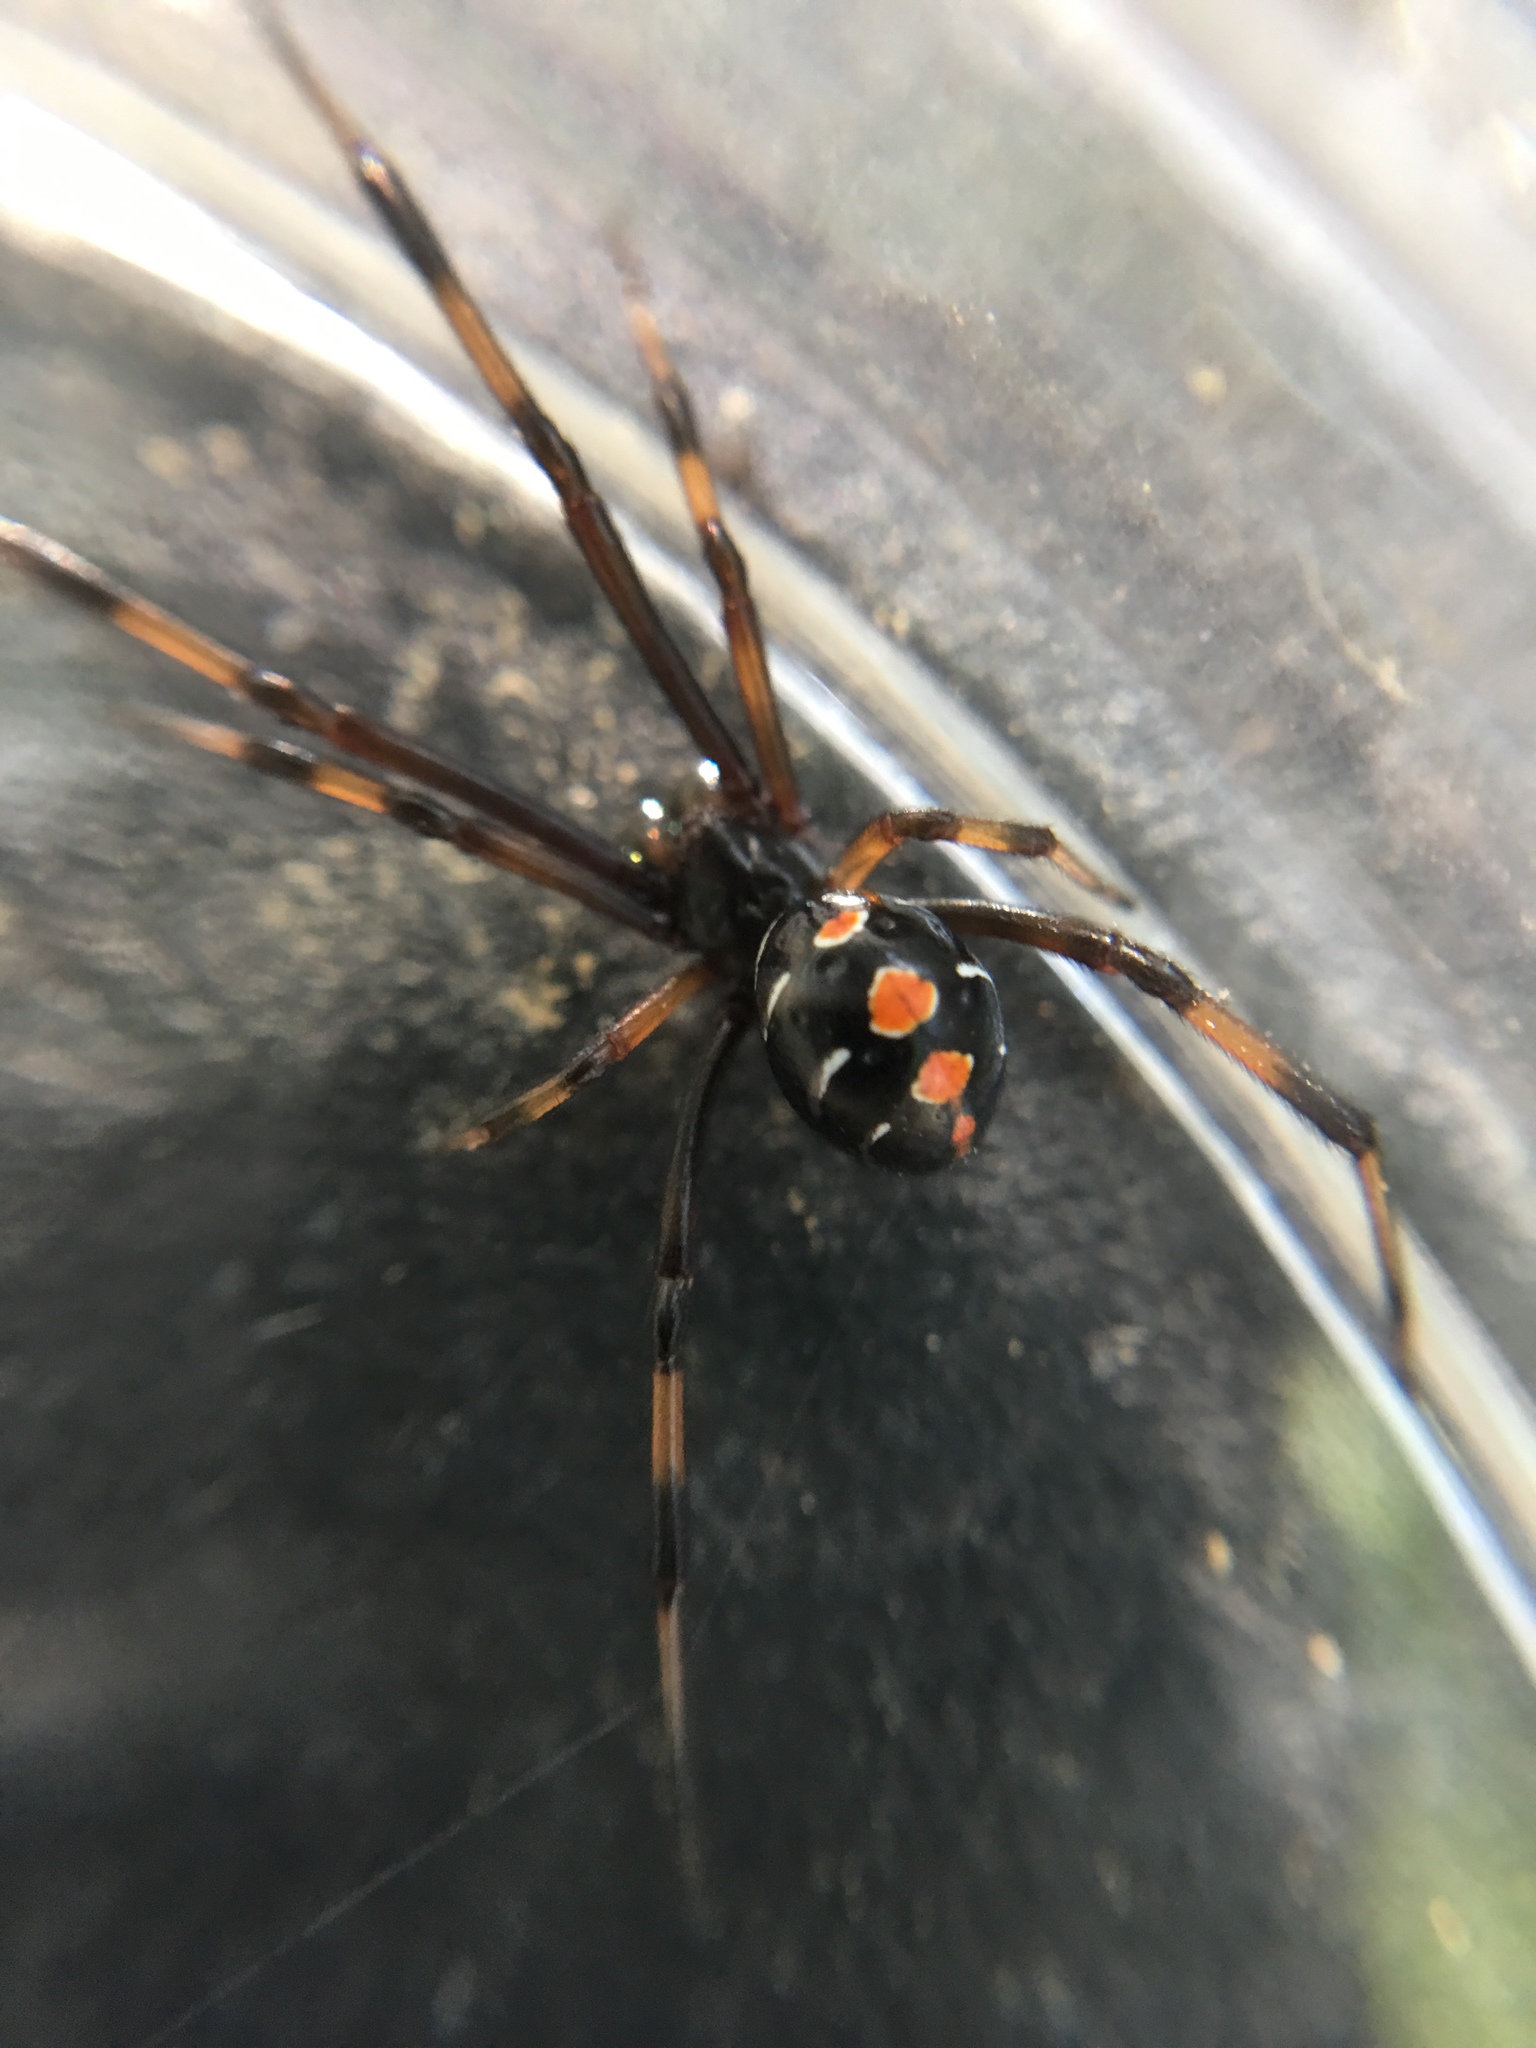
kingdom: Animalia
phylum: Arthropoda
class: Arachnida
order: Araneae
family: Theridiidae
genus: Latrodectus
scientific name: Latrodectus variolus
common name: Northern black widow
